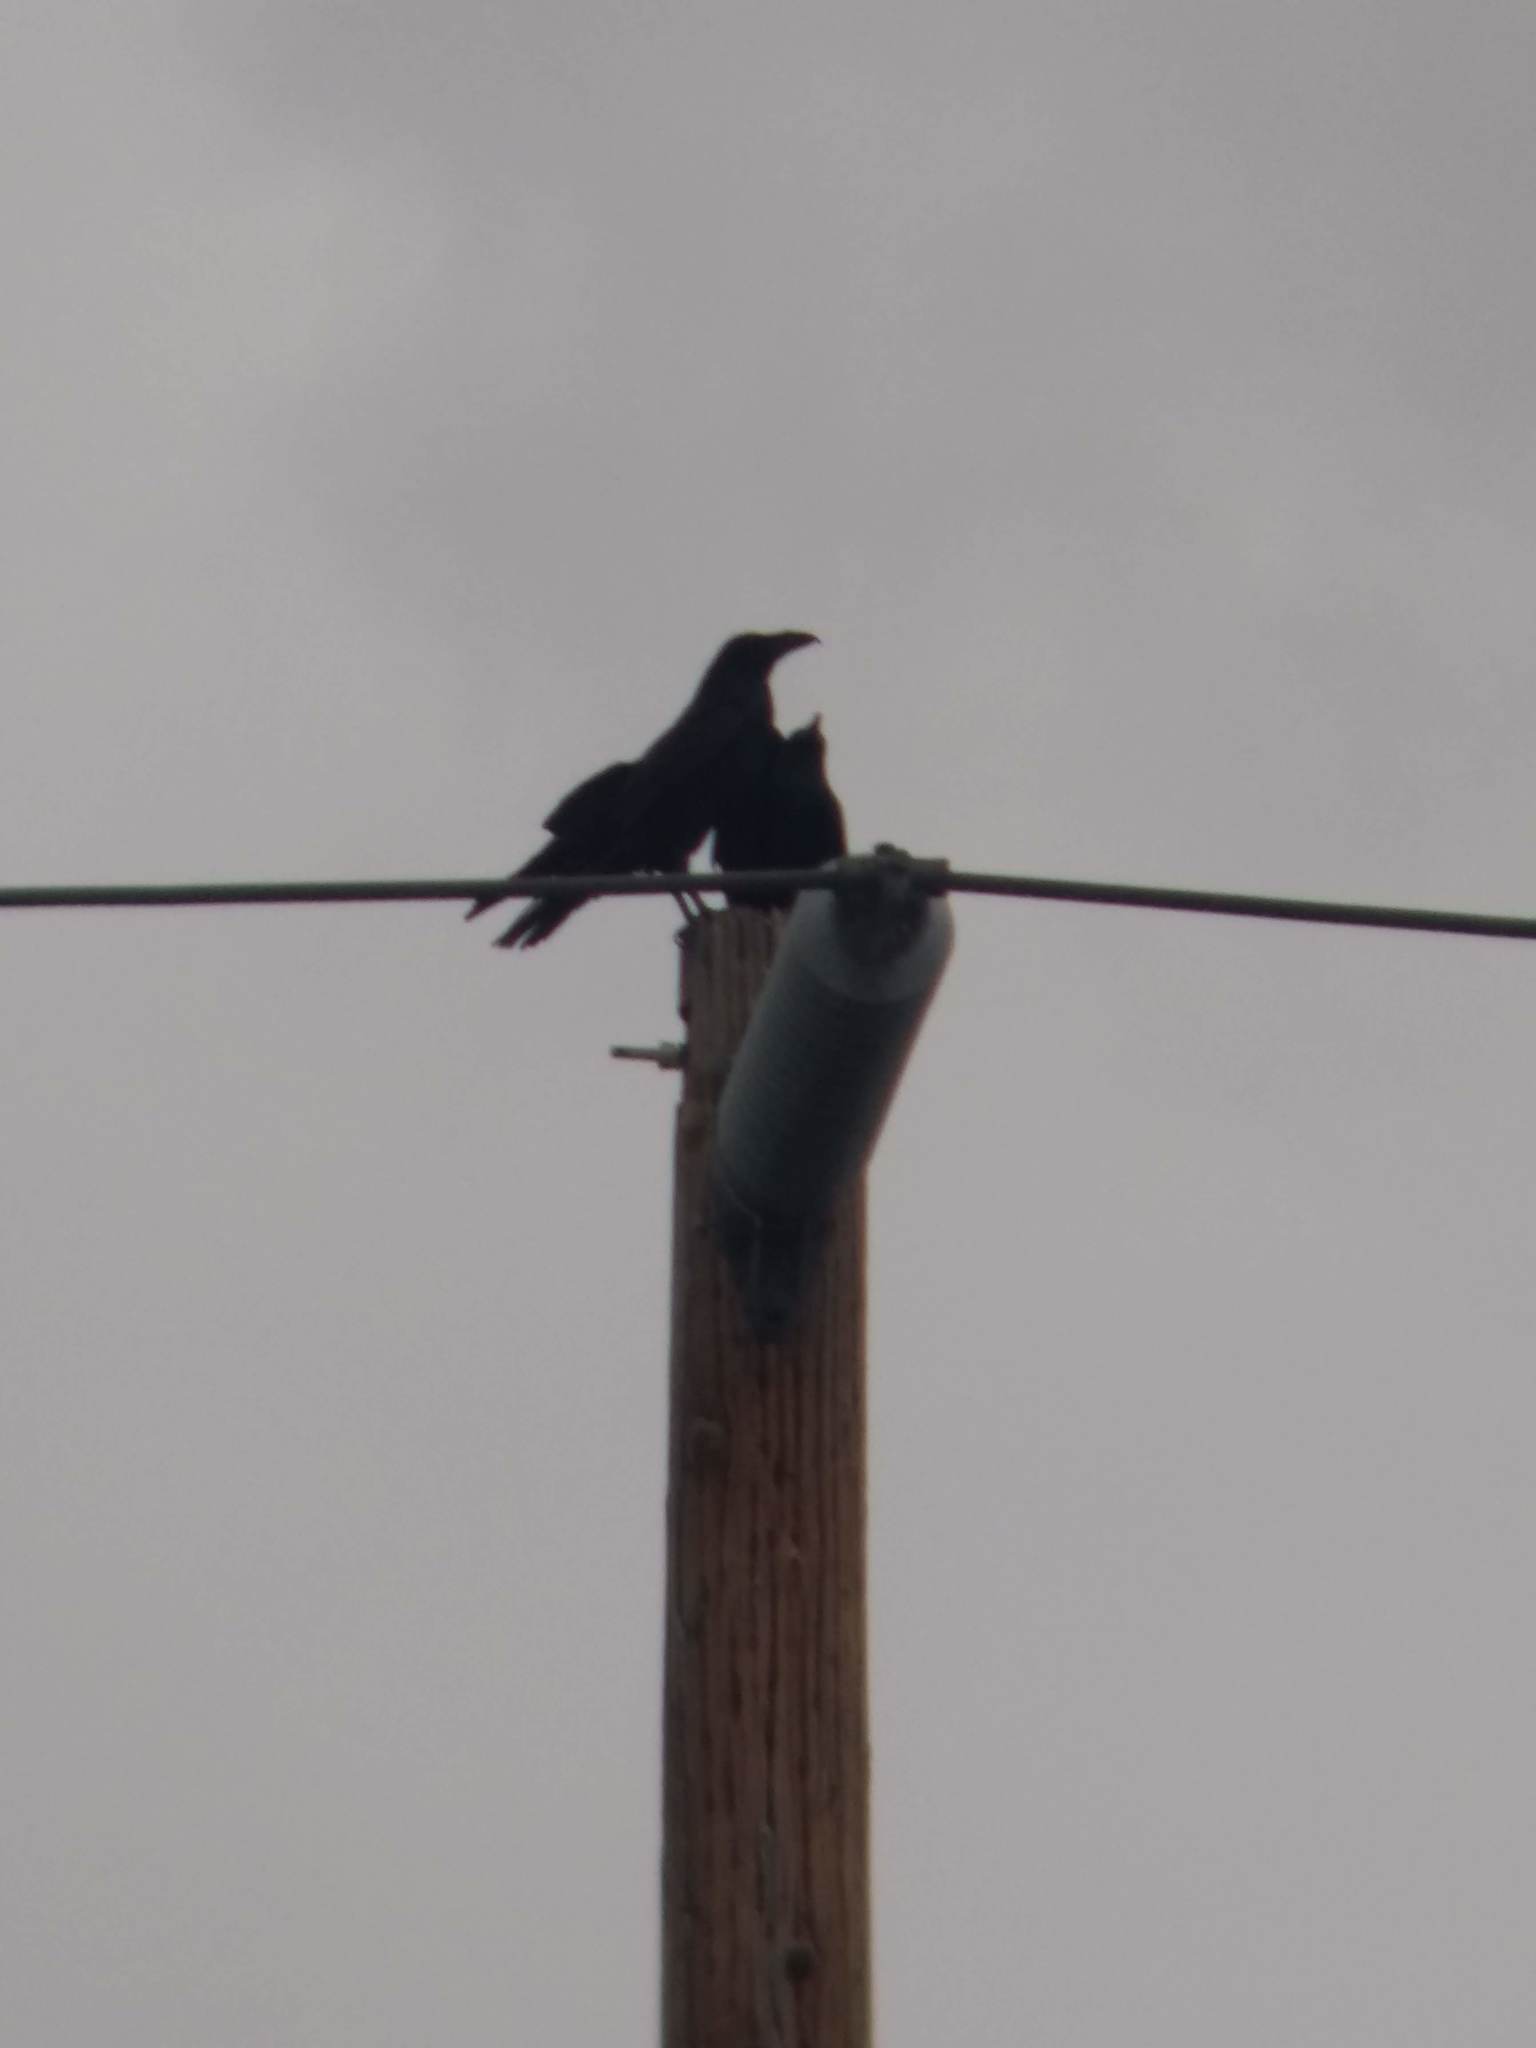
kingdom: Animalia
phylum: Chordata
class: Aves
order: Passeriformes
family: Corvidae
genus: Corvus
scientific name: Corvus corax
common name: Common raven
